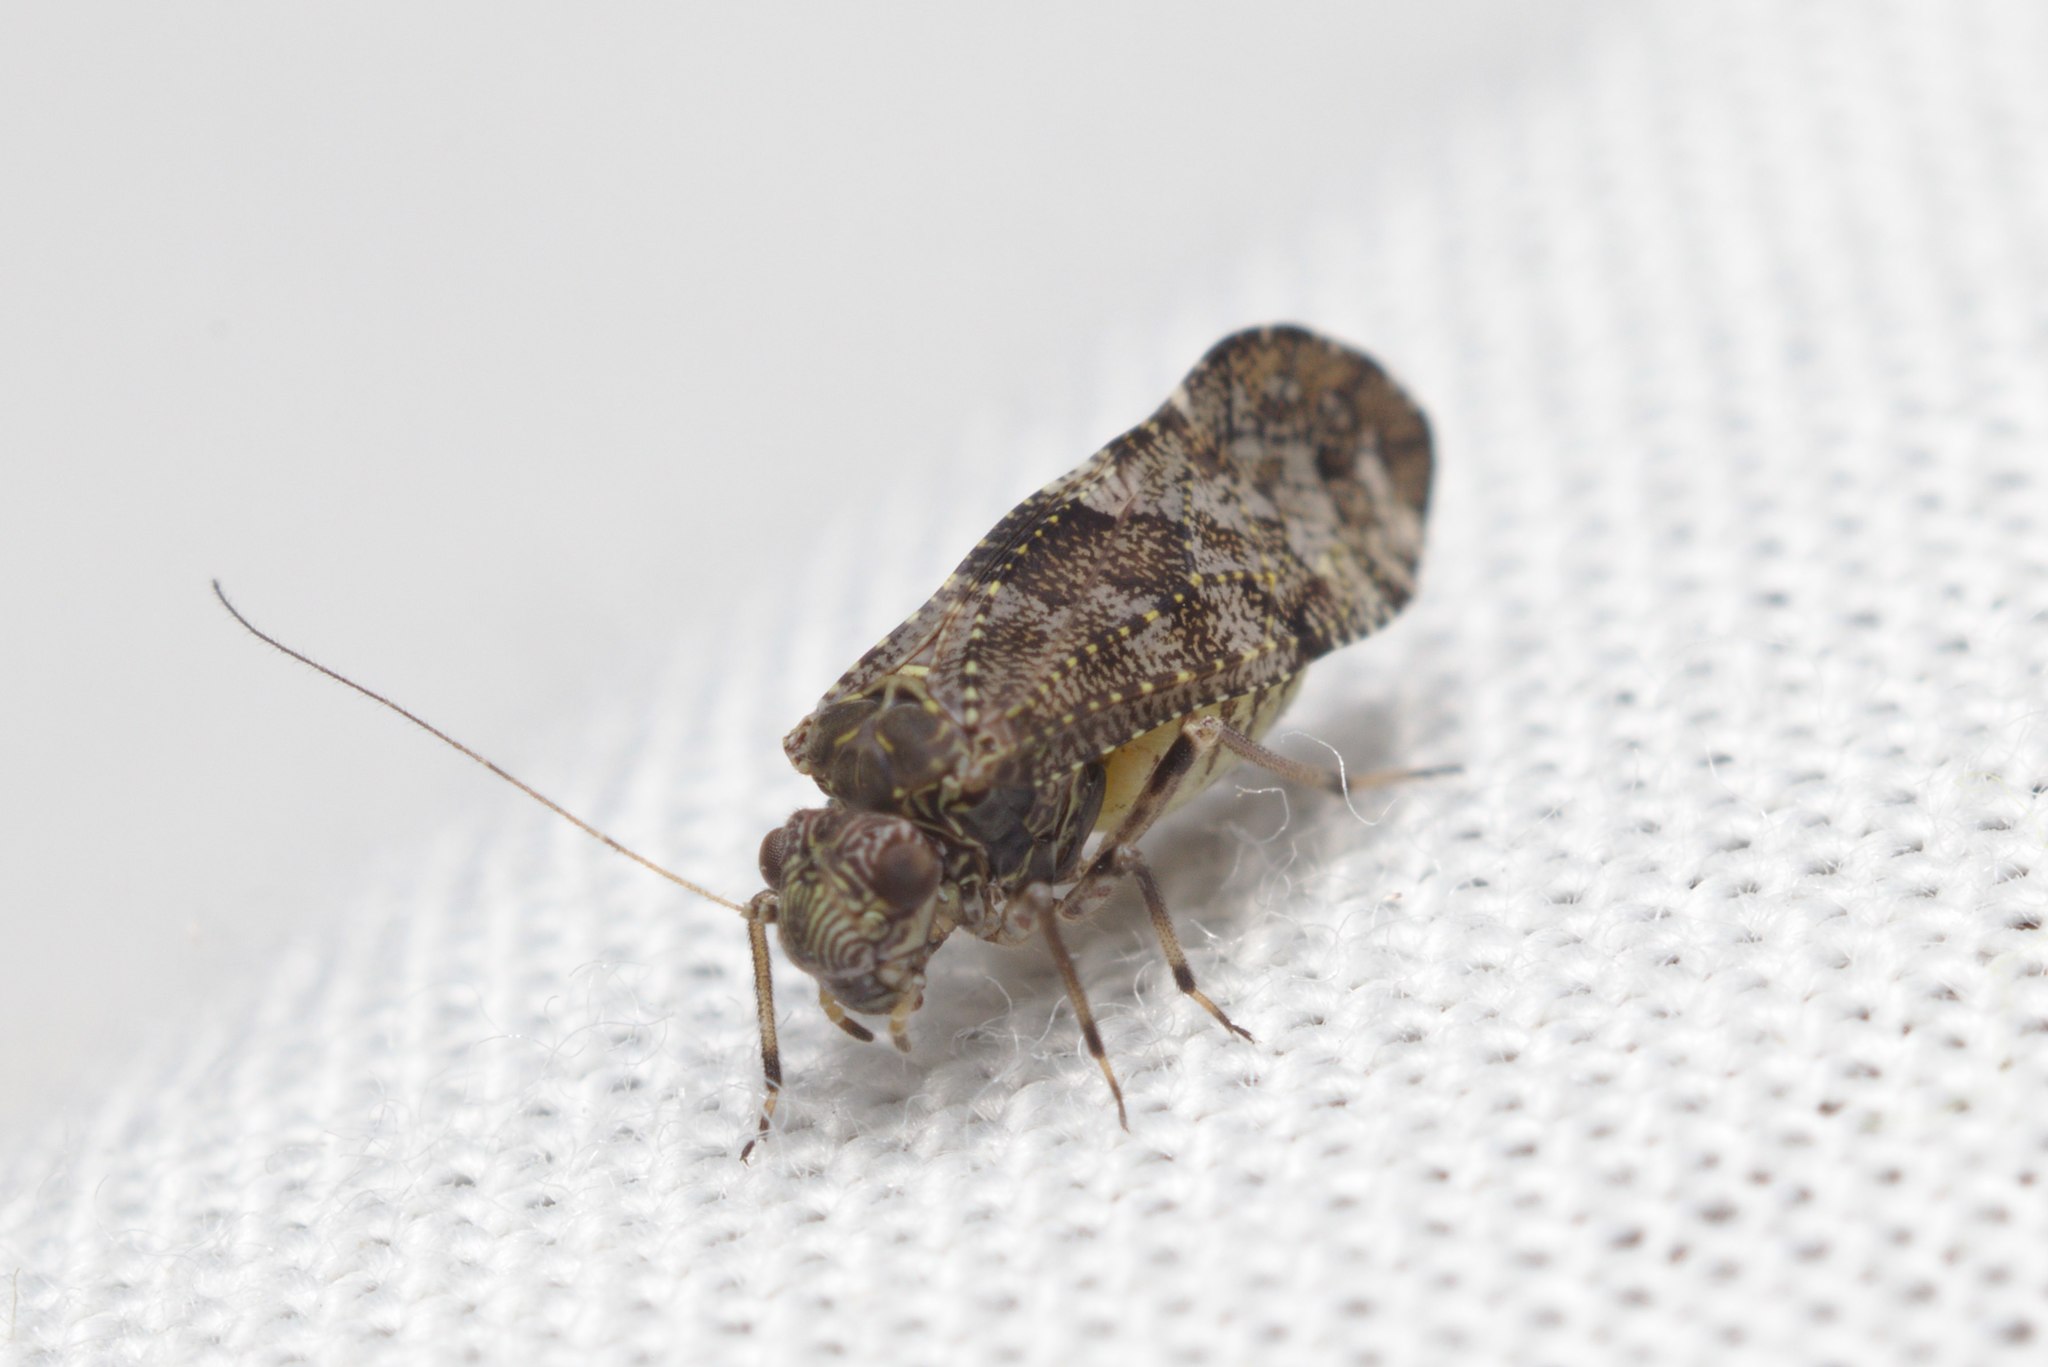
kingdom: Animalia
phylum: Arthropoda
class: Insecta
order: Psocodea
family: Myopsocidae
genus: Nimbopsocus
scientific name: Nimbopsocus australis
